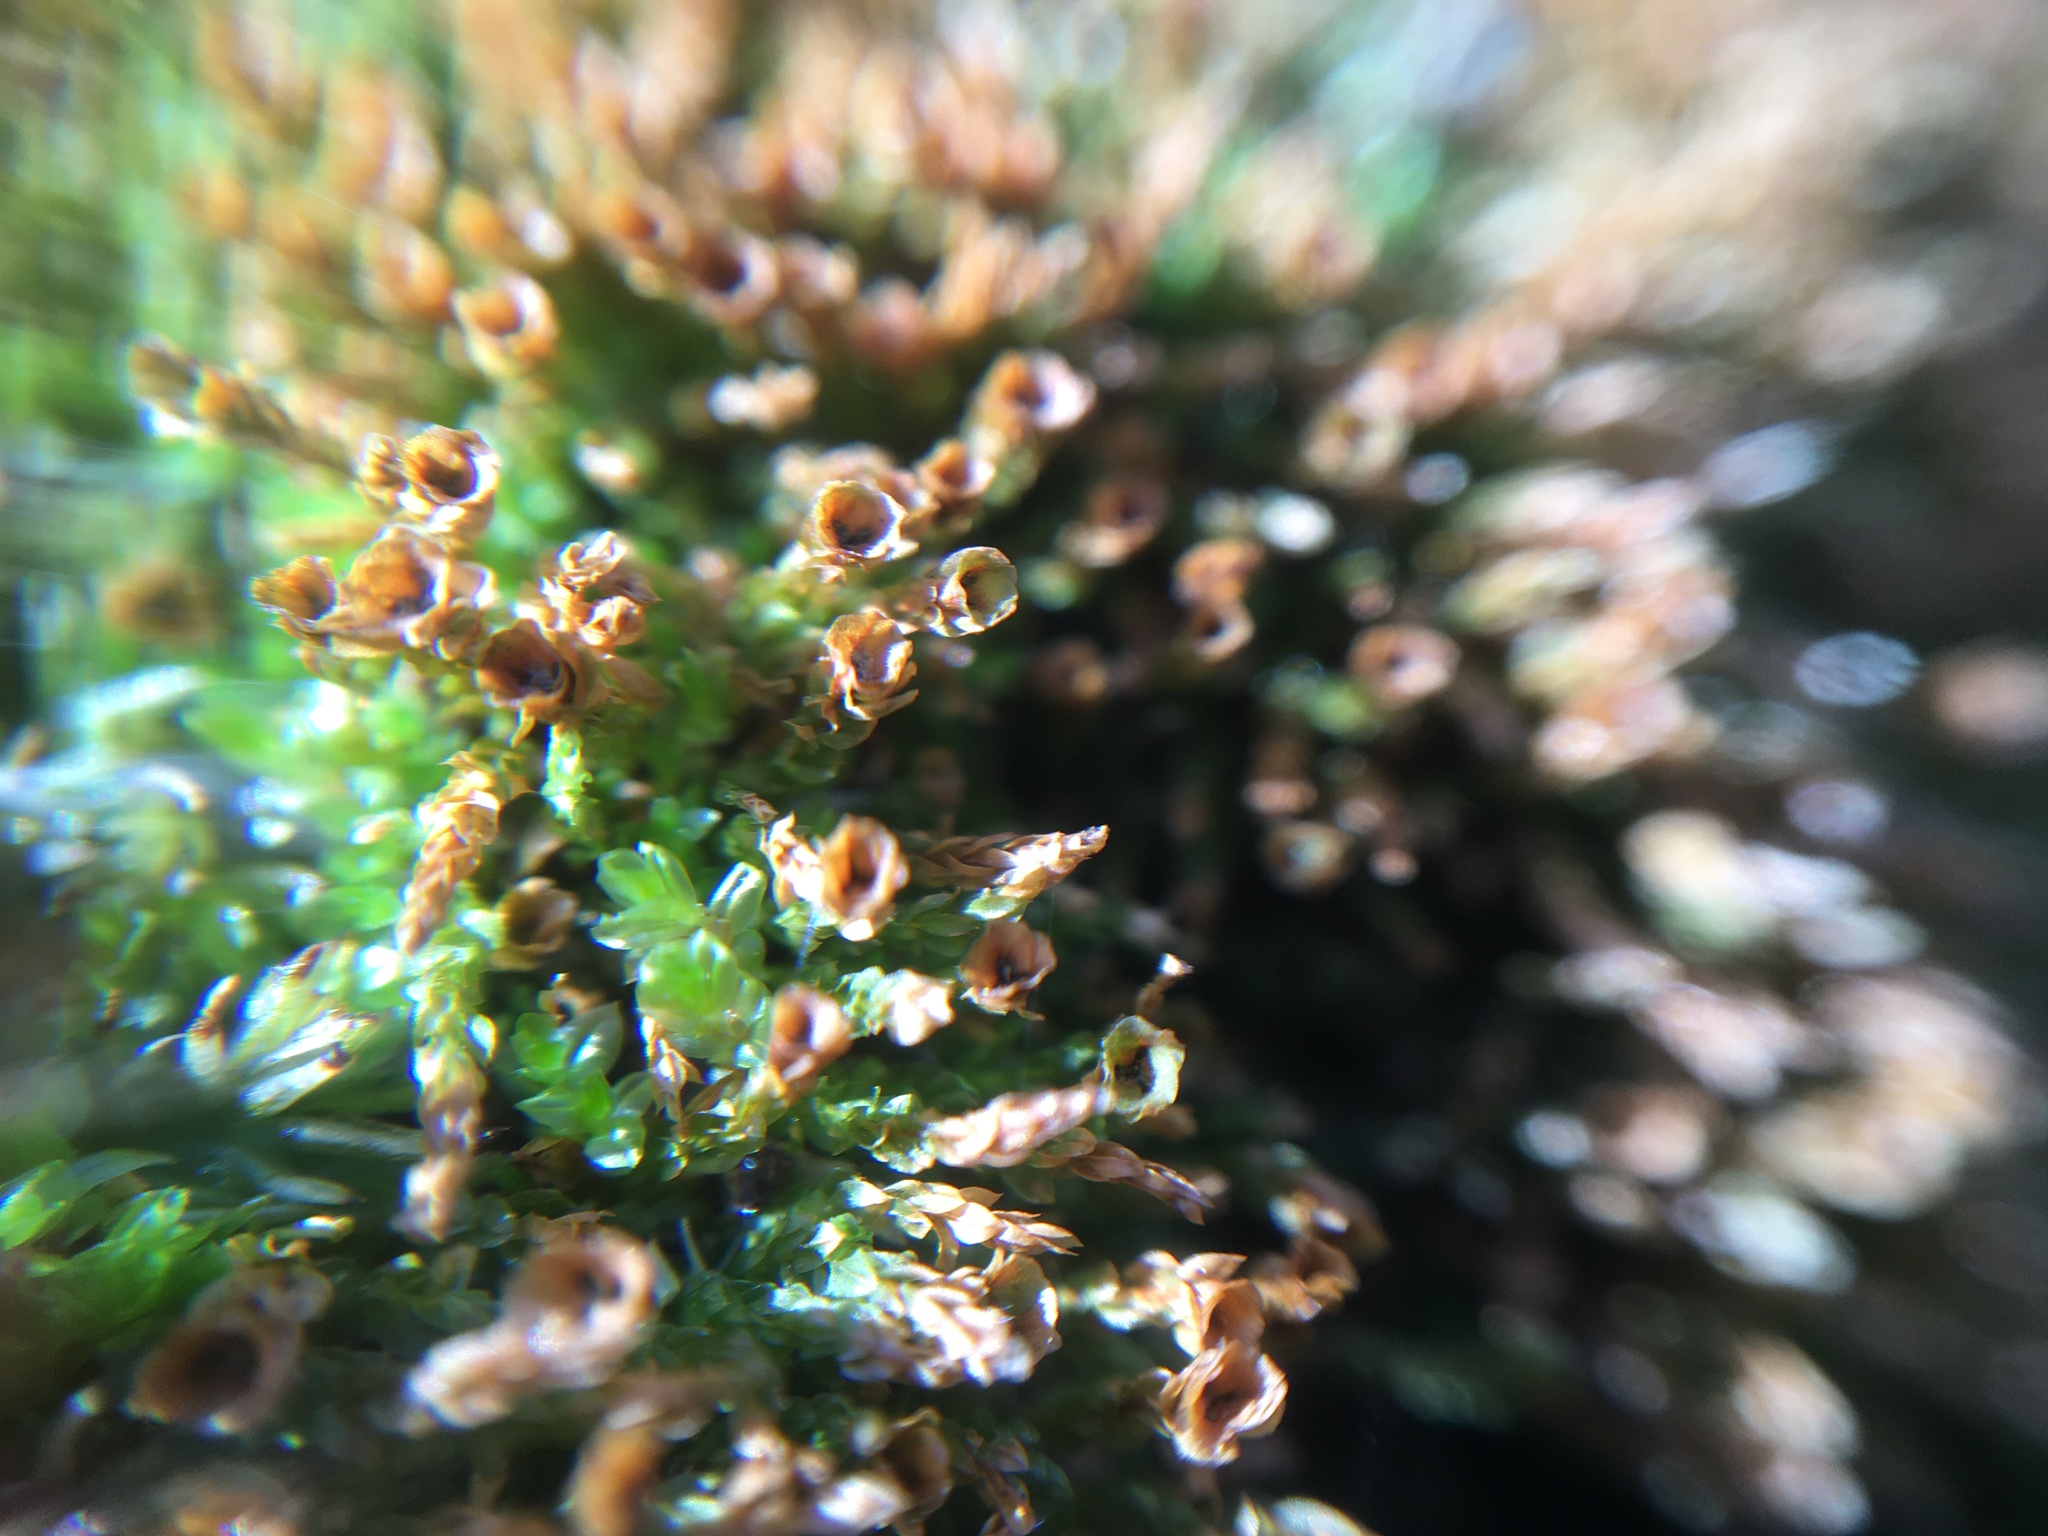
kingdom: Plantae
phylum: Bryophyta
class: Polytrichopsida
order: Tetraphidales
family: Tetraphidaceae
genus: Tetraphis
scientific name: Tetraphis pellucida
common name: Common four-toothed moss
